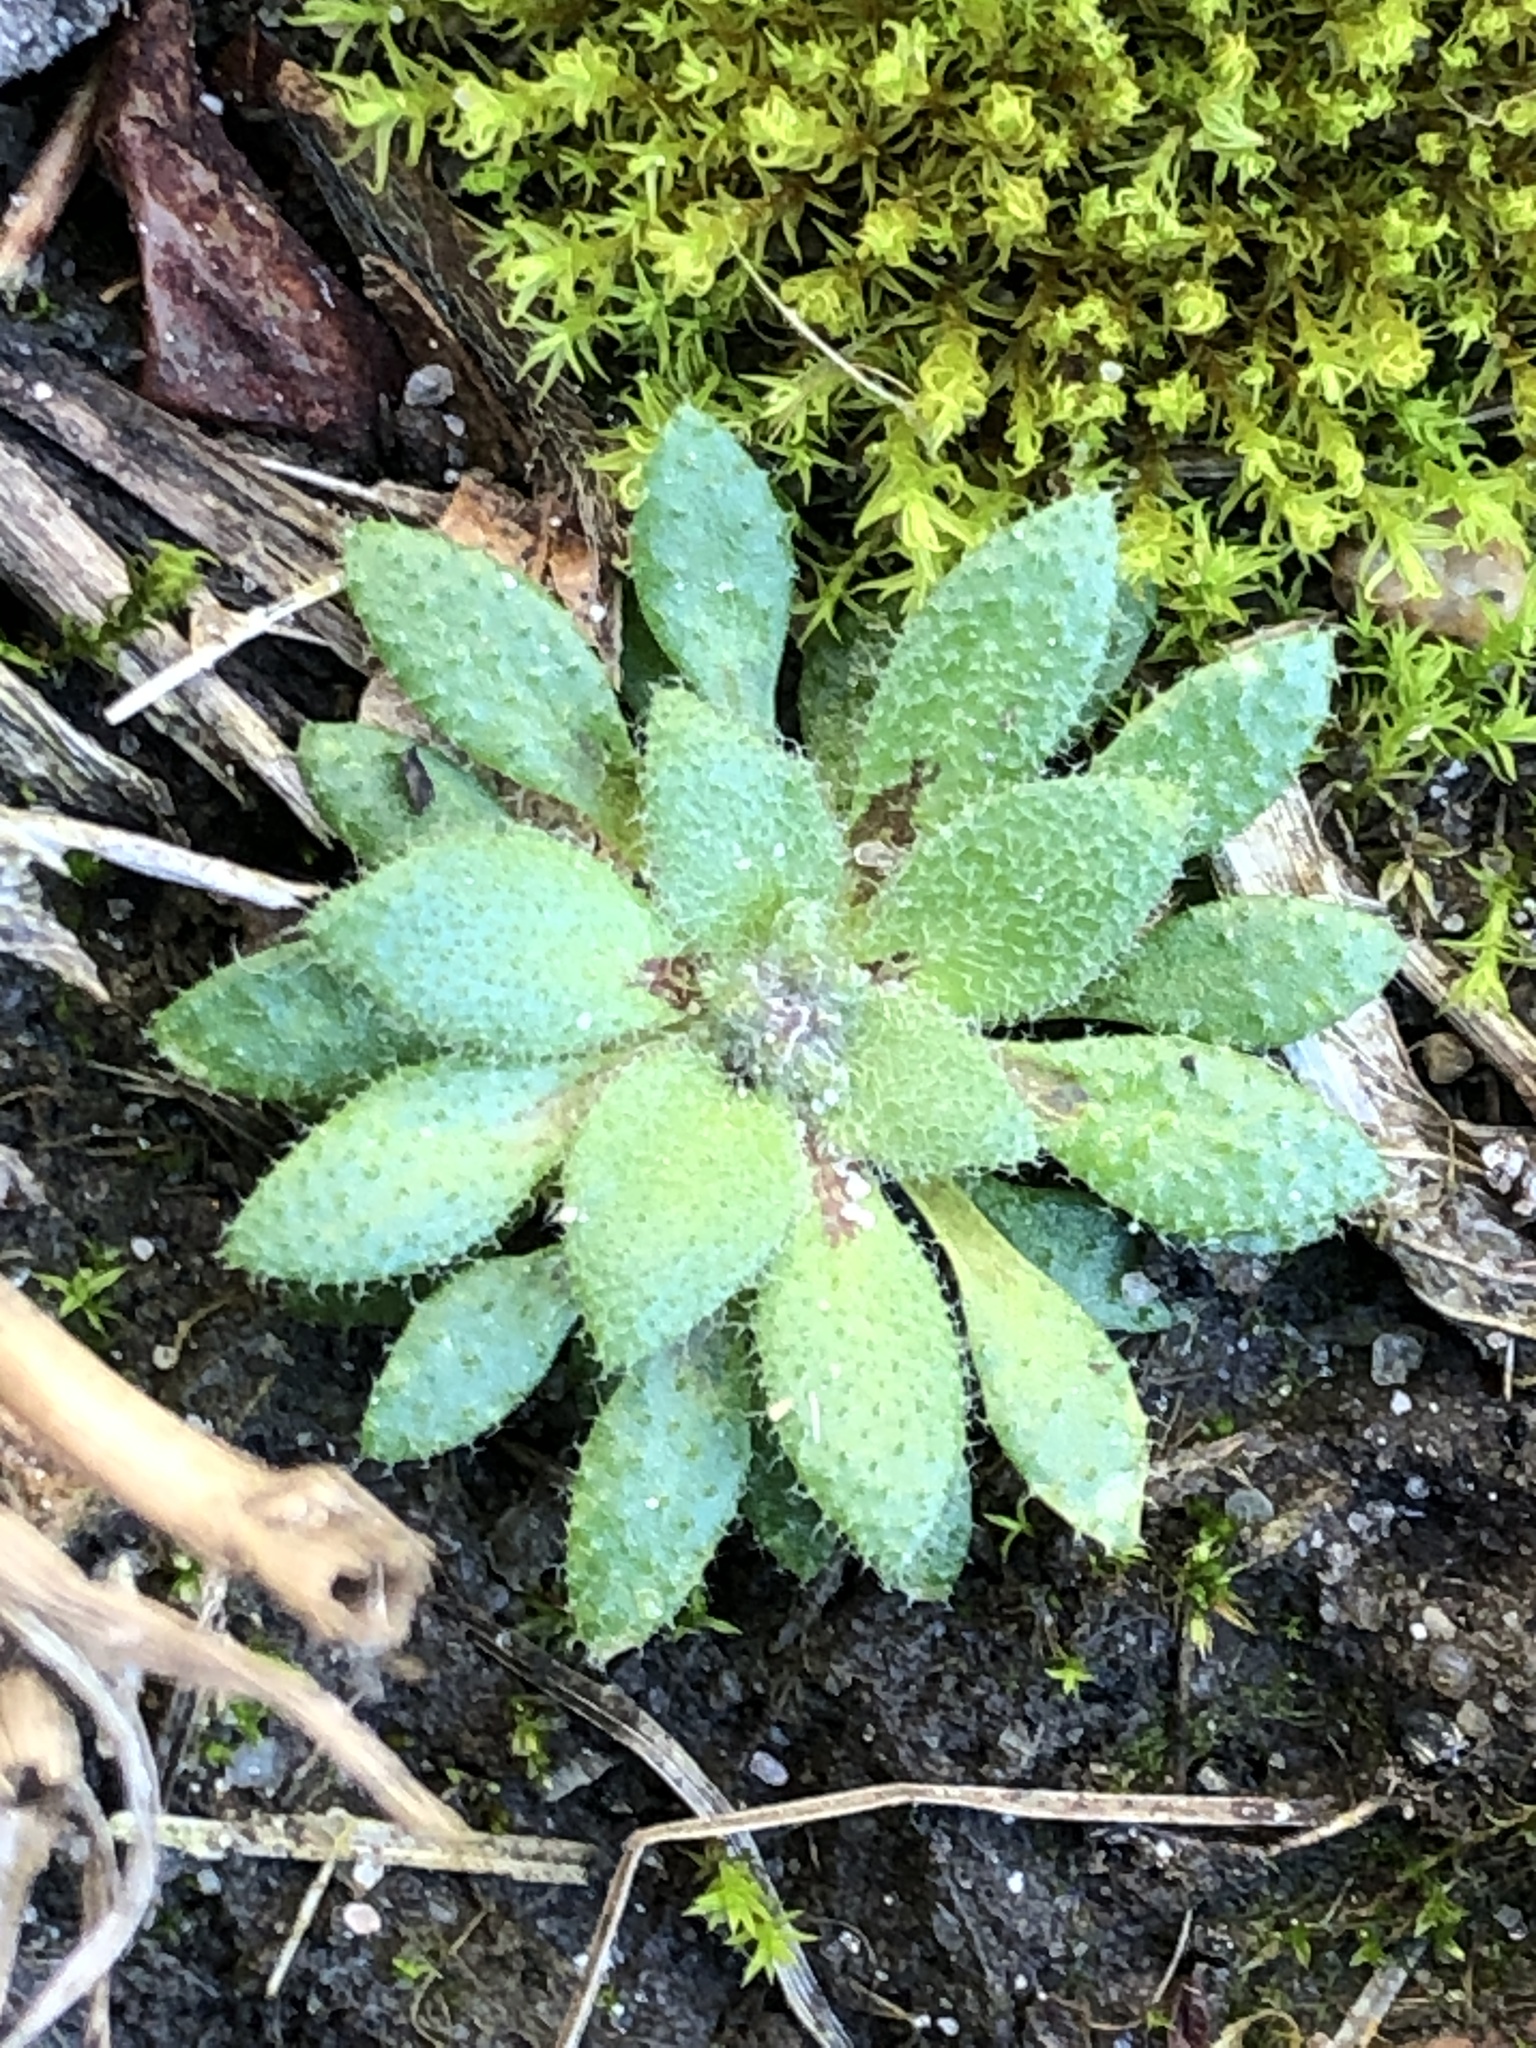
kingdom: Plantae
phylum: Tracheophyta
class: Magnoliopsida
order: Brassicales
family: Brassicaceae
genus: Draba
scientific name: Draba verna
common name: Spring draba
